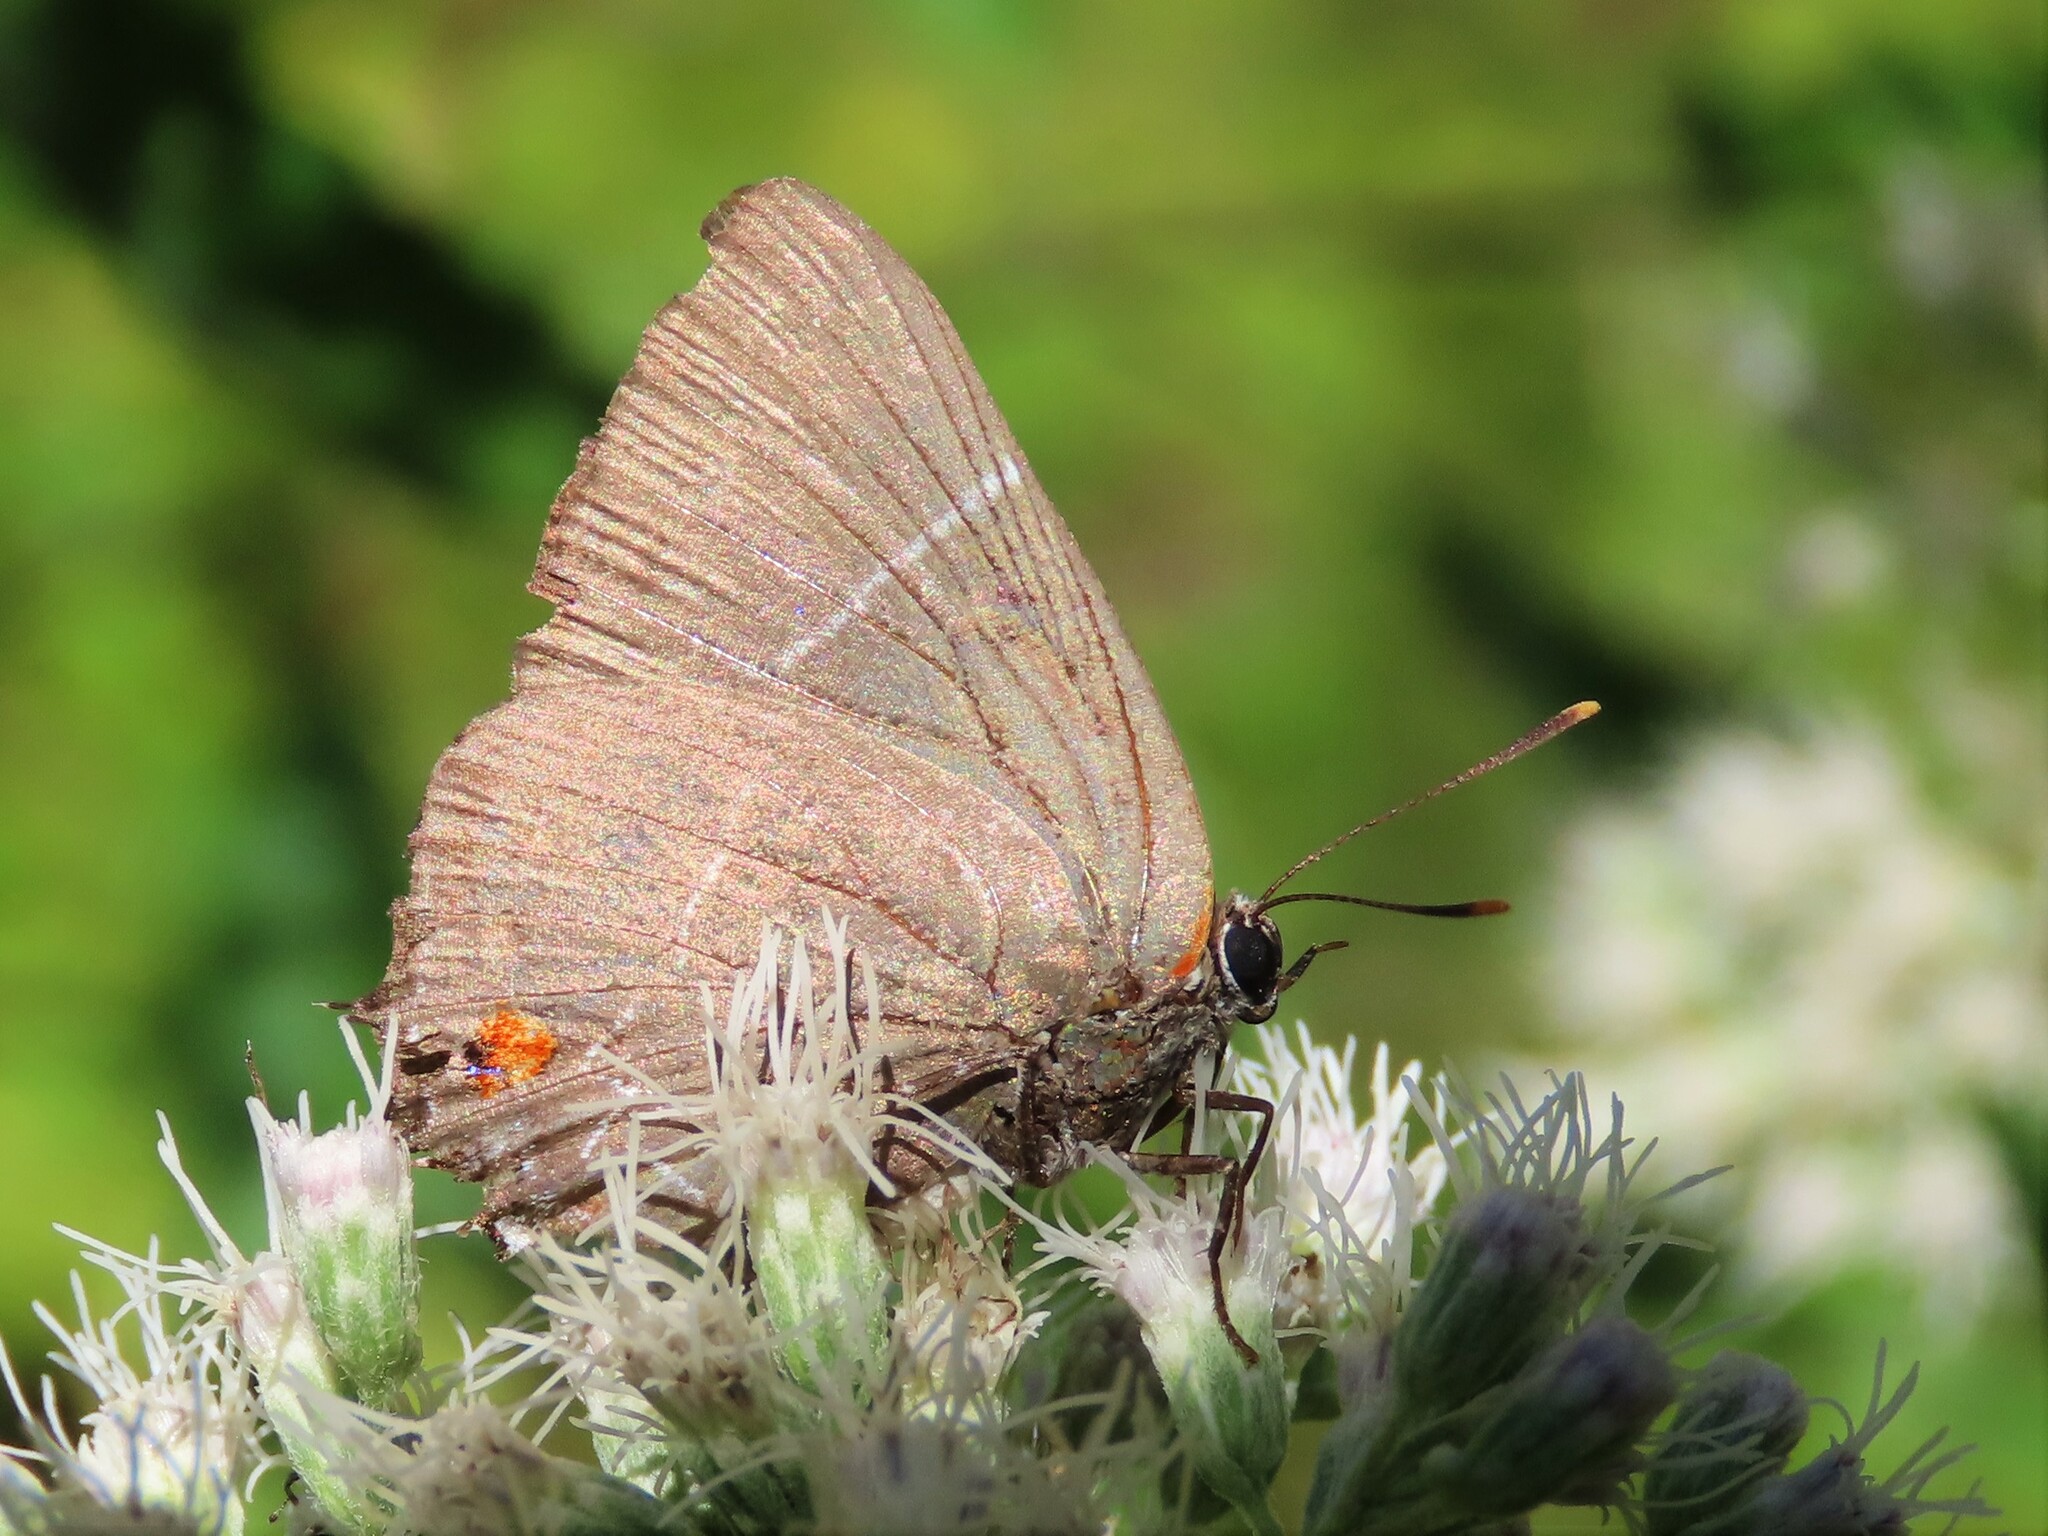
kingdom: Animalia
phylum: Arthropoda
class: Insecta
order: Lepidoptera
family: Lycaenidae
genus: Parrhasius
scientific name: Parrhasius m-album
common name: White m hairstreak
